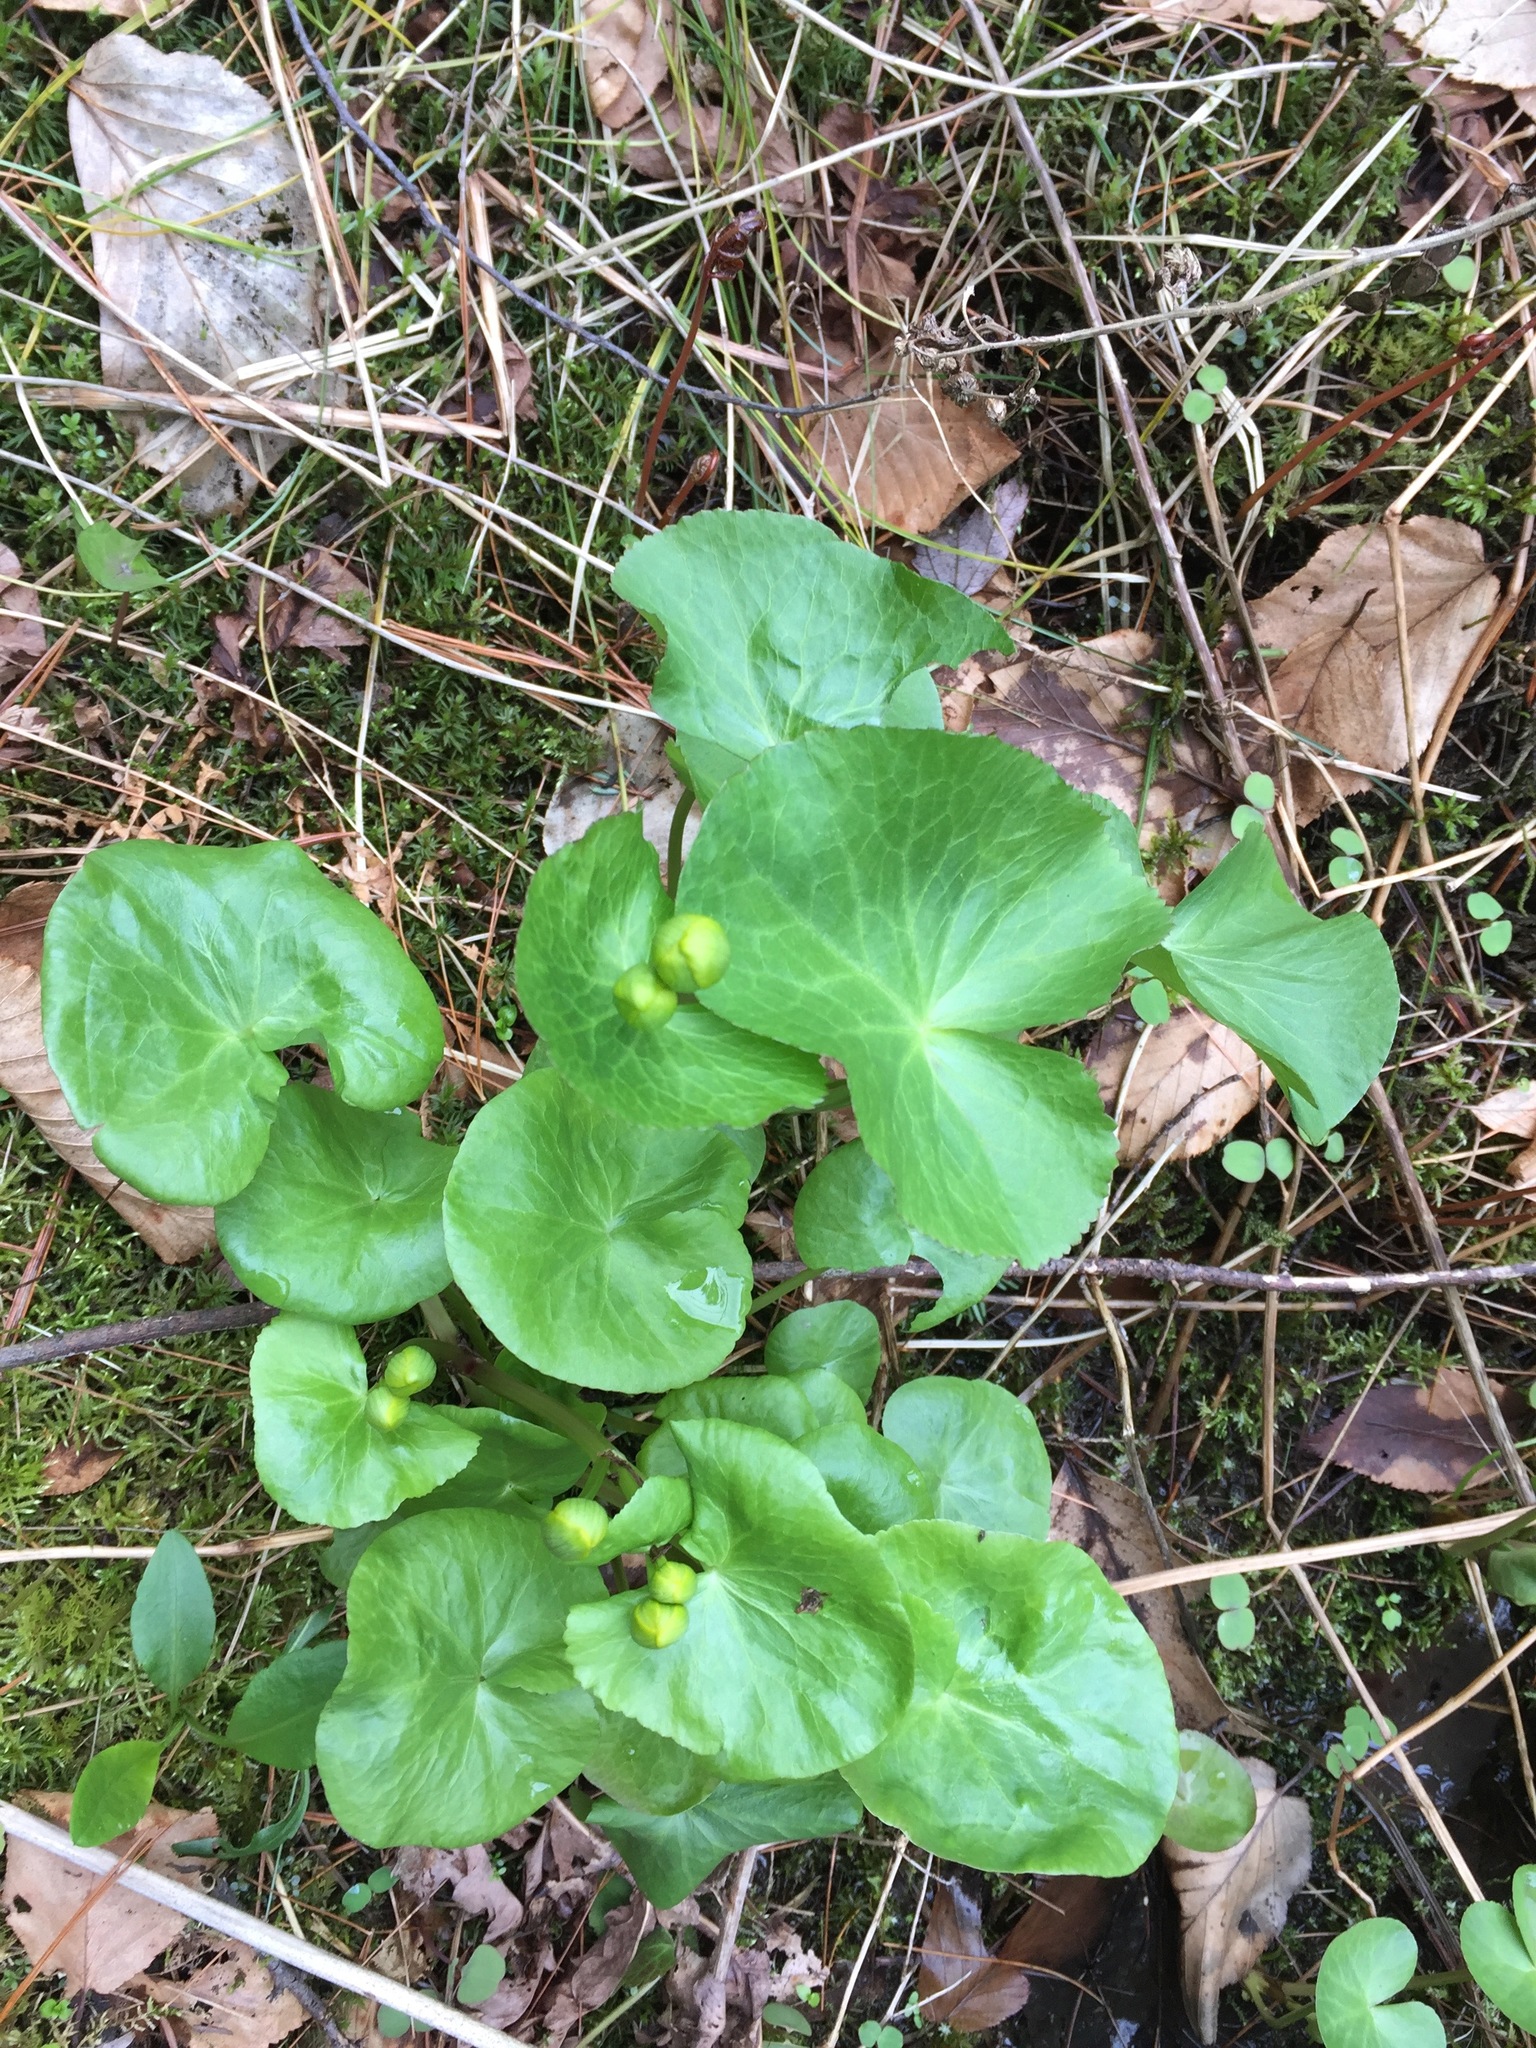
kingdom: Plantae
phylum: Tracheophyta
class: Magnoliopsida
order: Ranunculales
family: Ranunculaceae
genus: Caltha
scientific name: Caltha palustris
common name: Marsh marigold
